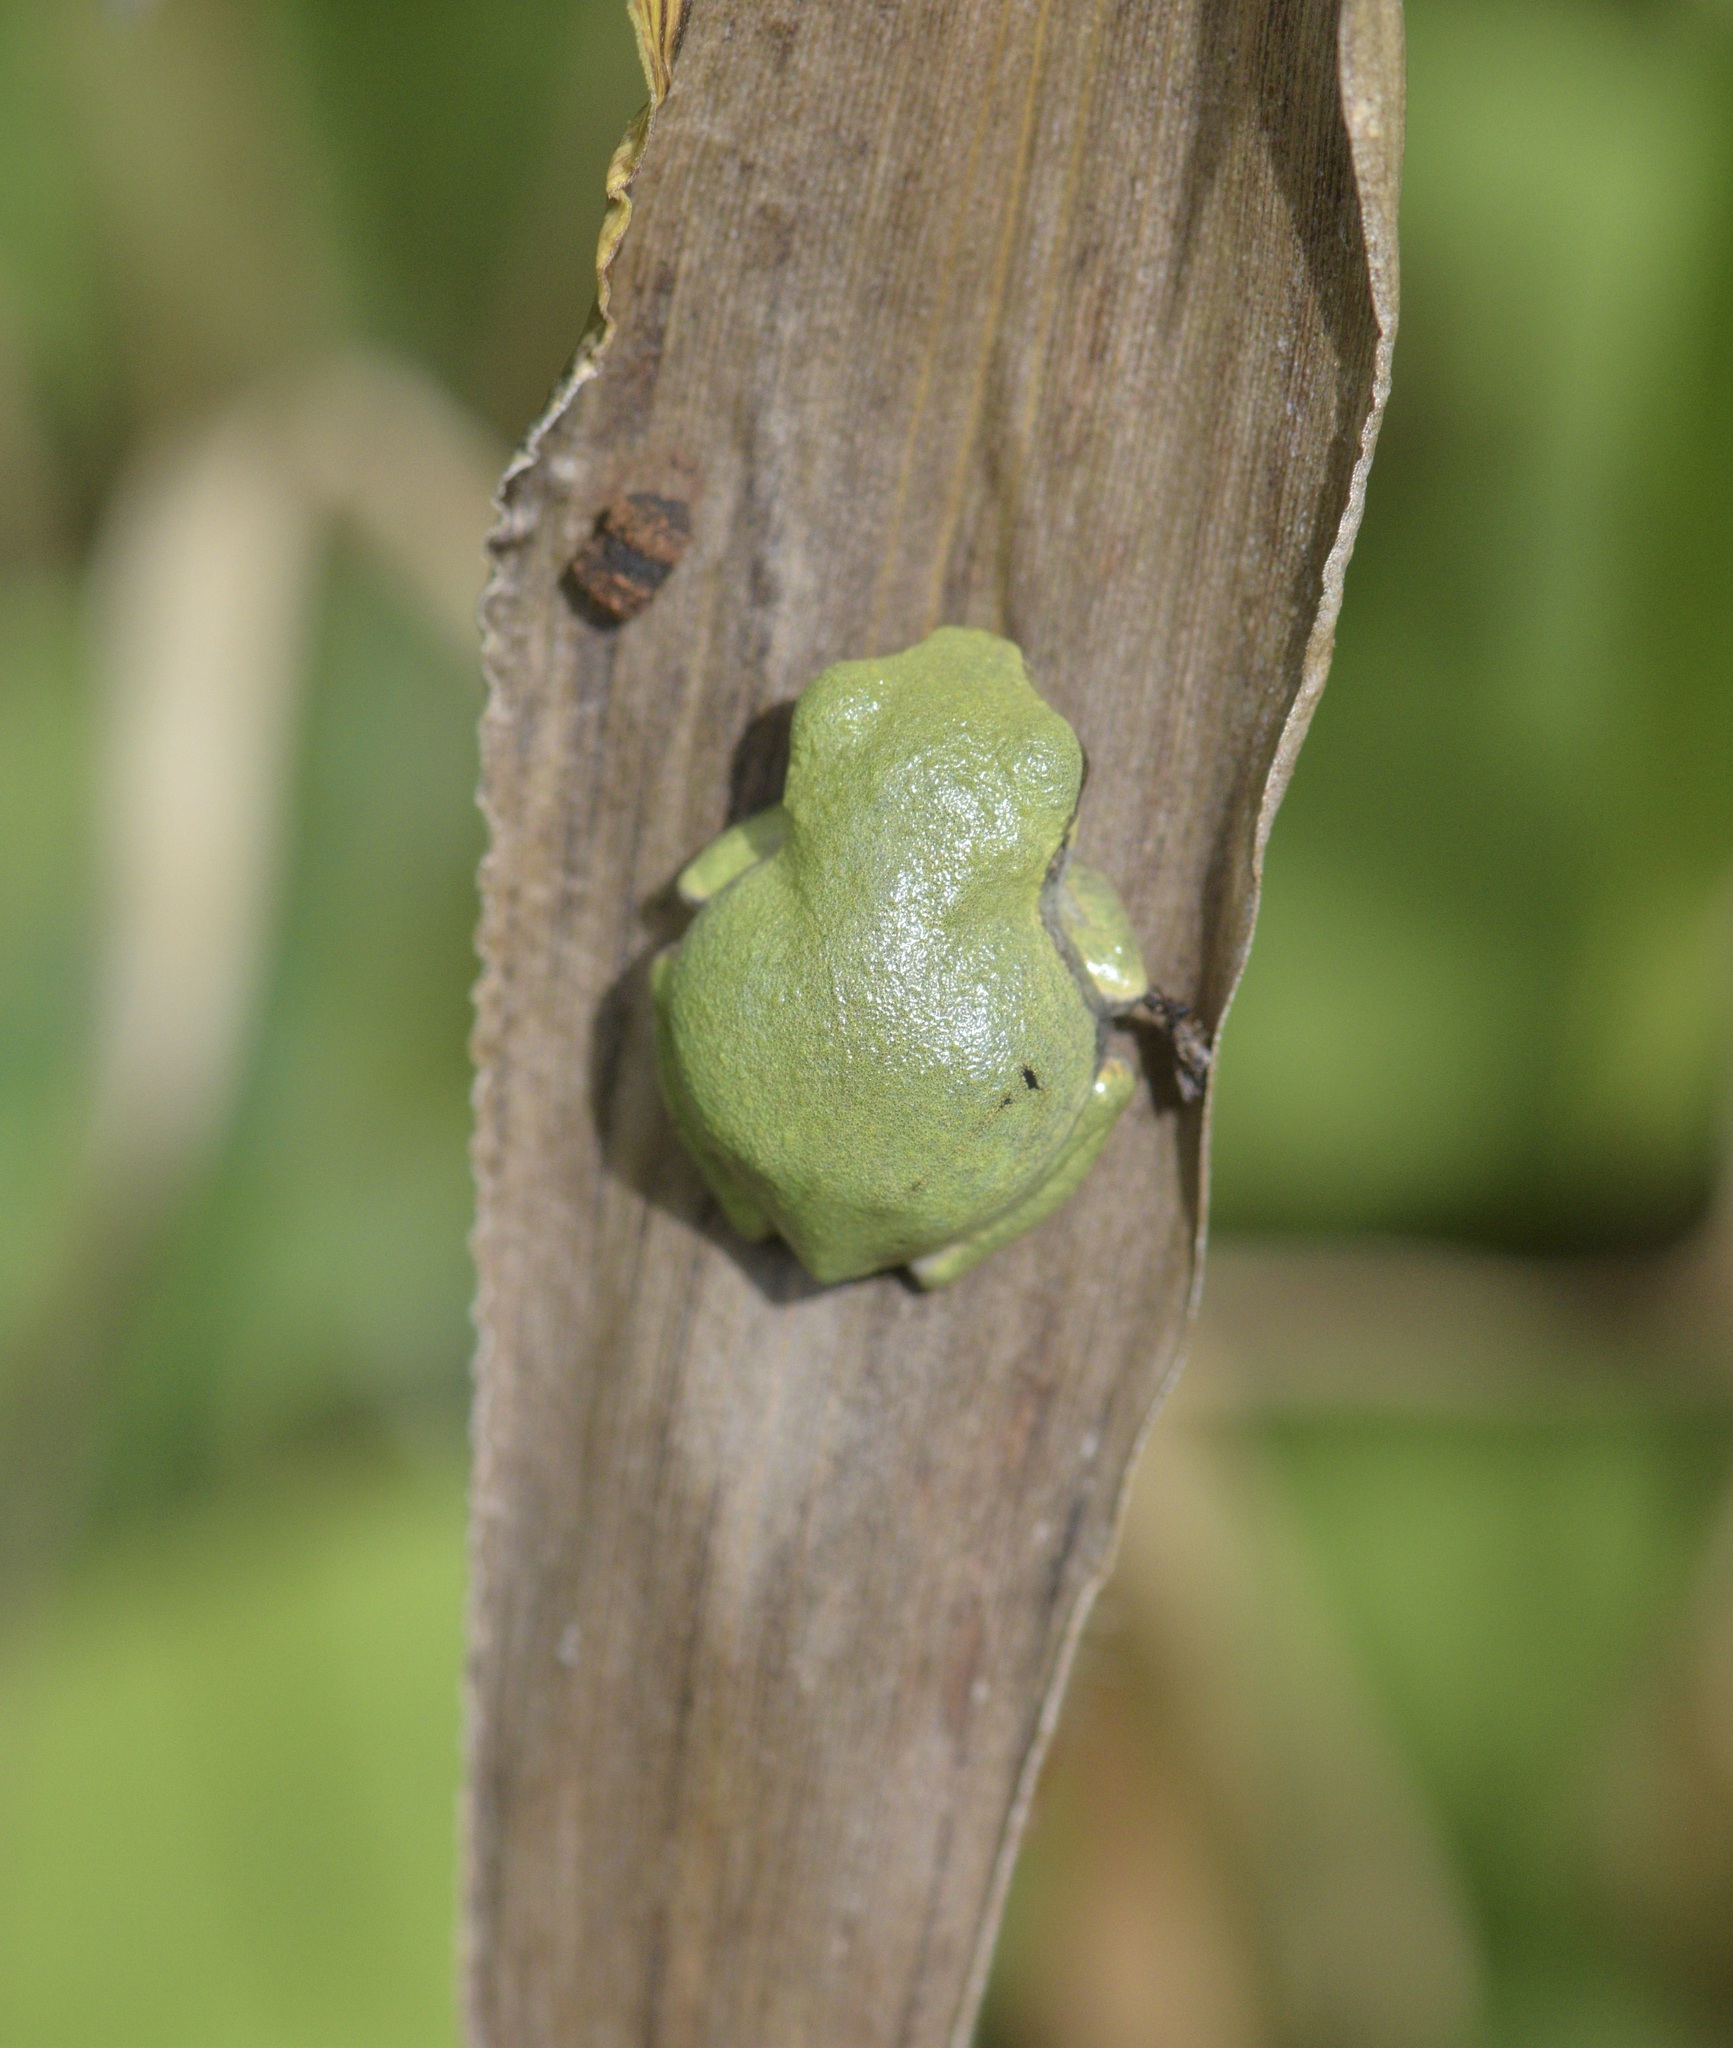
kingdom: Animalia
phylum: Chordata
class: Amphibia
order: Anura
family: Hylidae
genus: Dryophytes
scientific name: Dryophytes versicolor
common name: Gray treefrog
